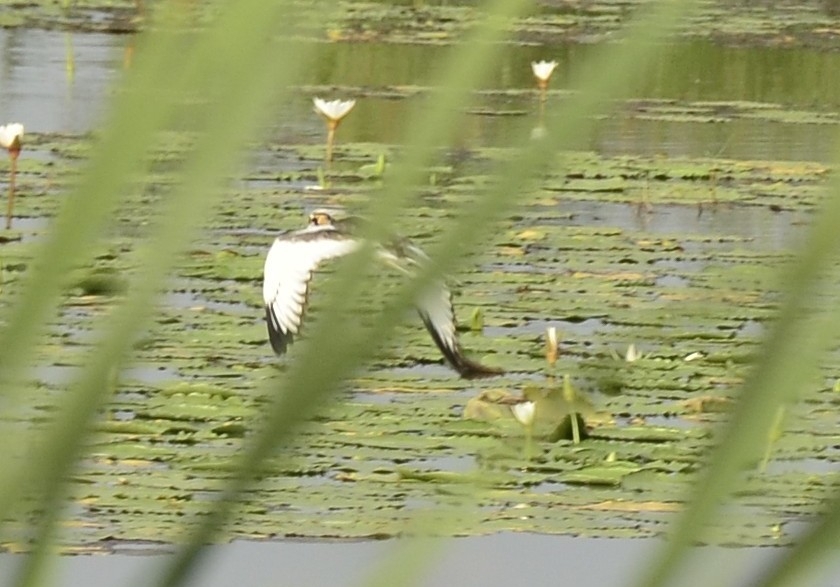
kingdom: Animalia
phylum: Chordata
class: Aves
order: Charadriiformes
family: Jacanidae
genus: Hydrophasianus
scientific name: Hydrophasianus chirurgus
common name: Pheasant-tailed jacana
